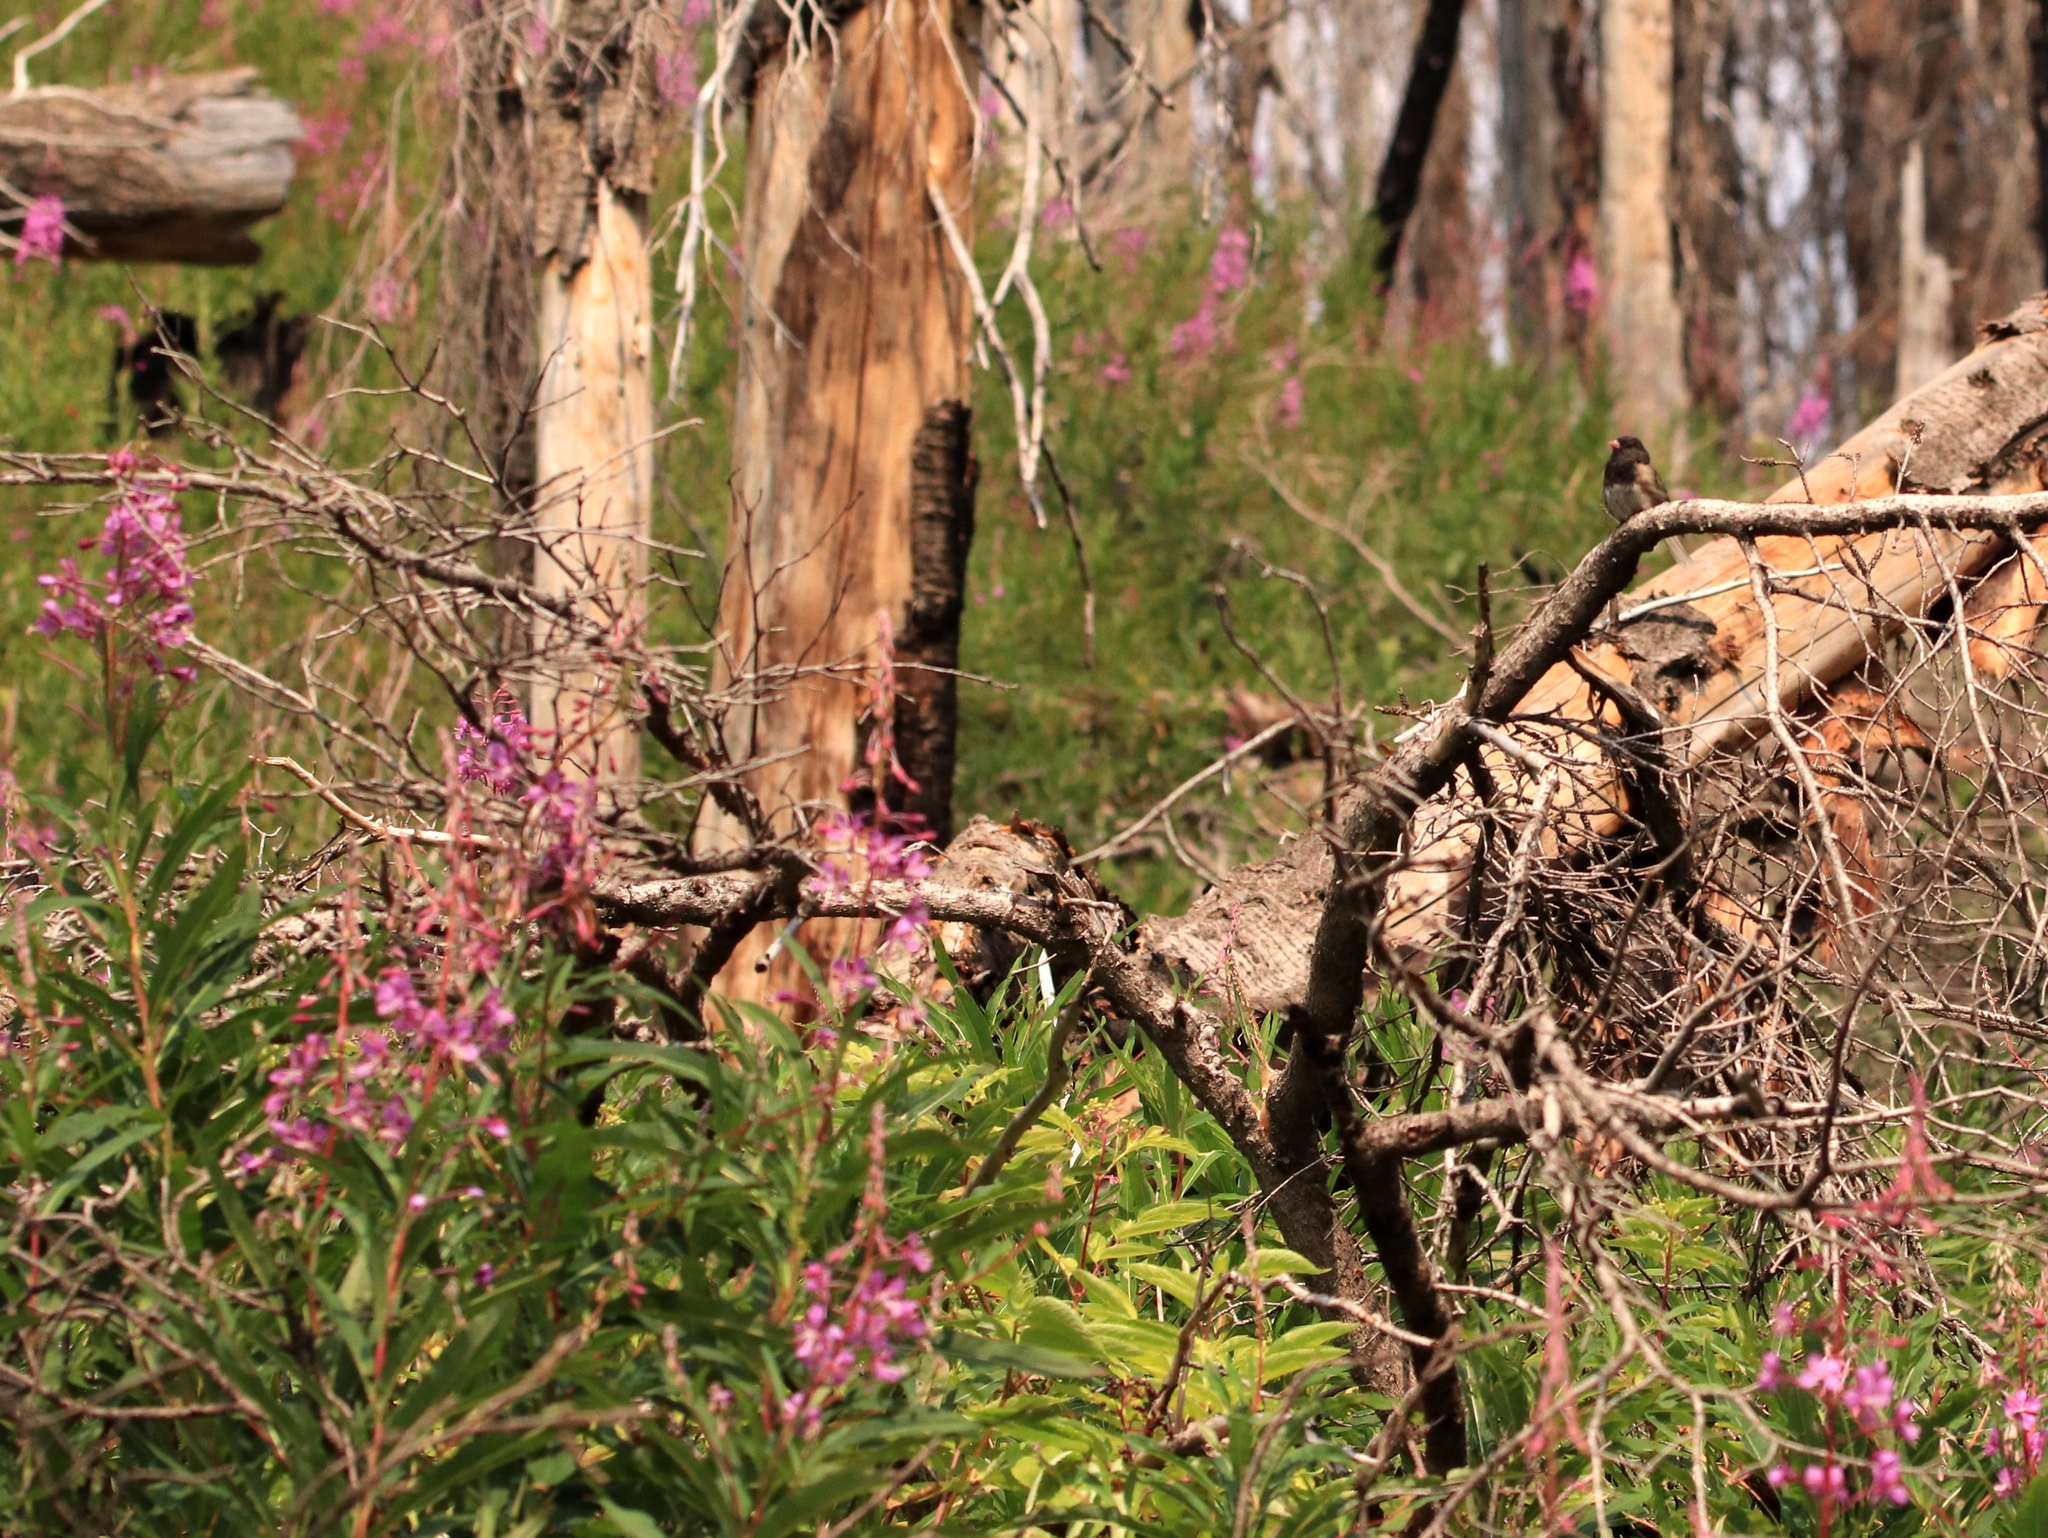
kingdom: Animalia
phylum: Chordata
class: Aves
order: Passeriformes
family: Passerellidae
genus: Junco
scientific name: Junco hyemalis
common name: Dark-eyed junco
